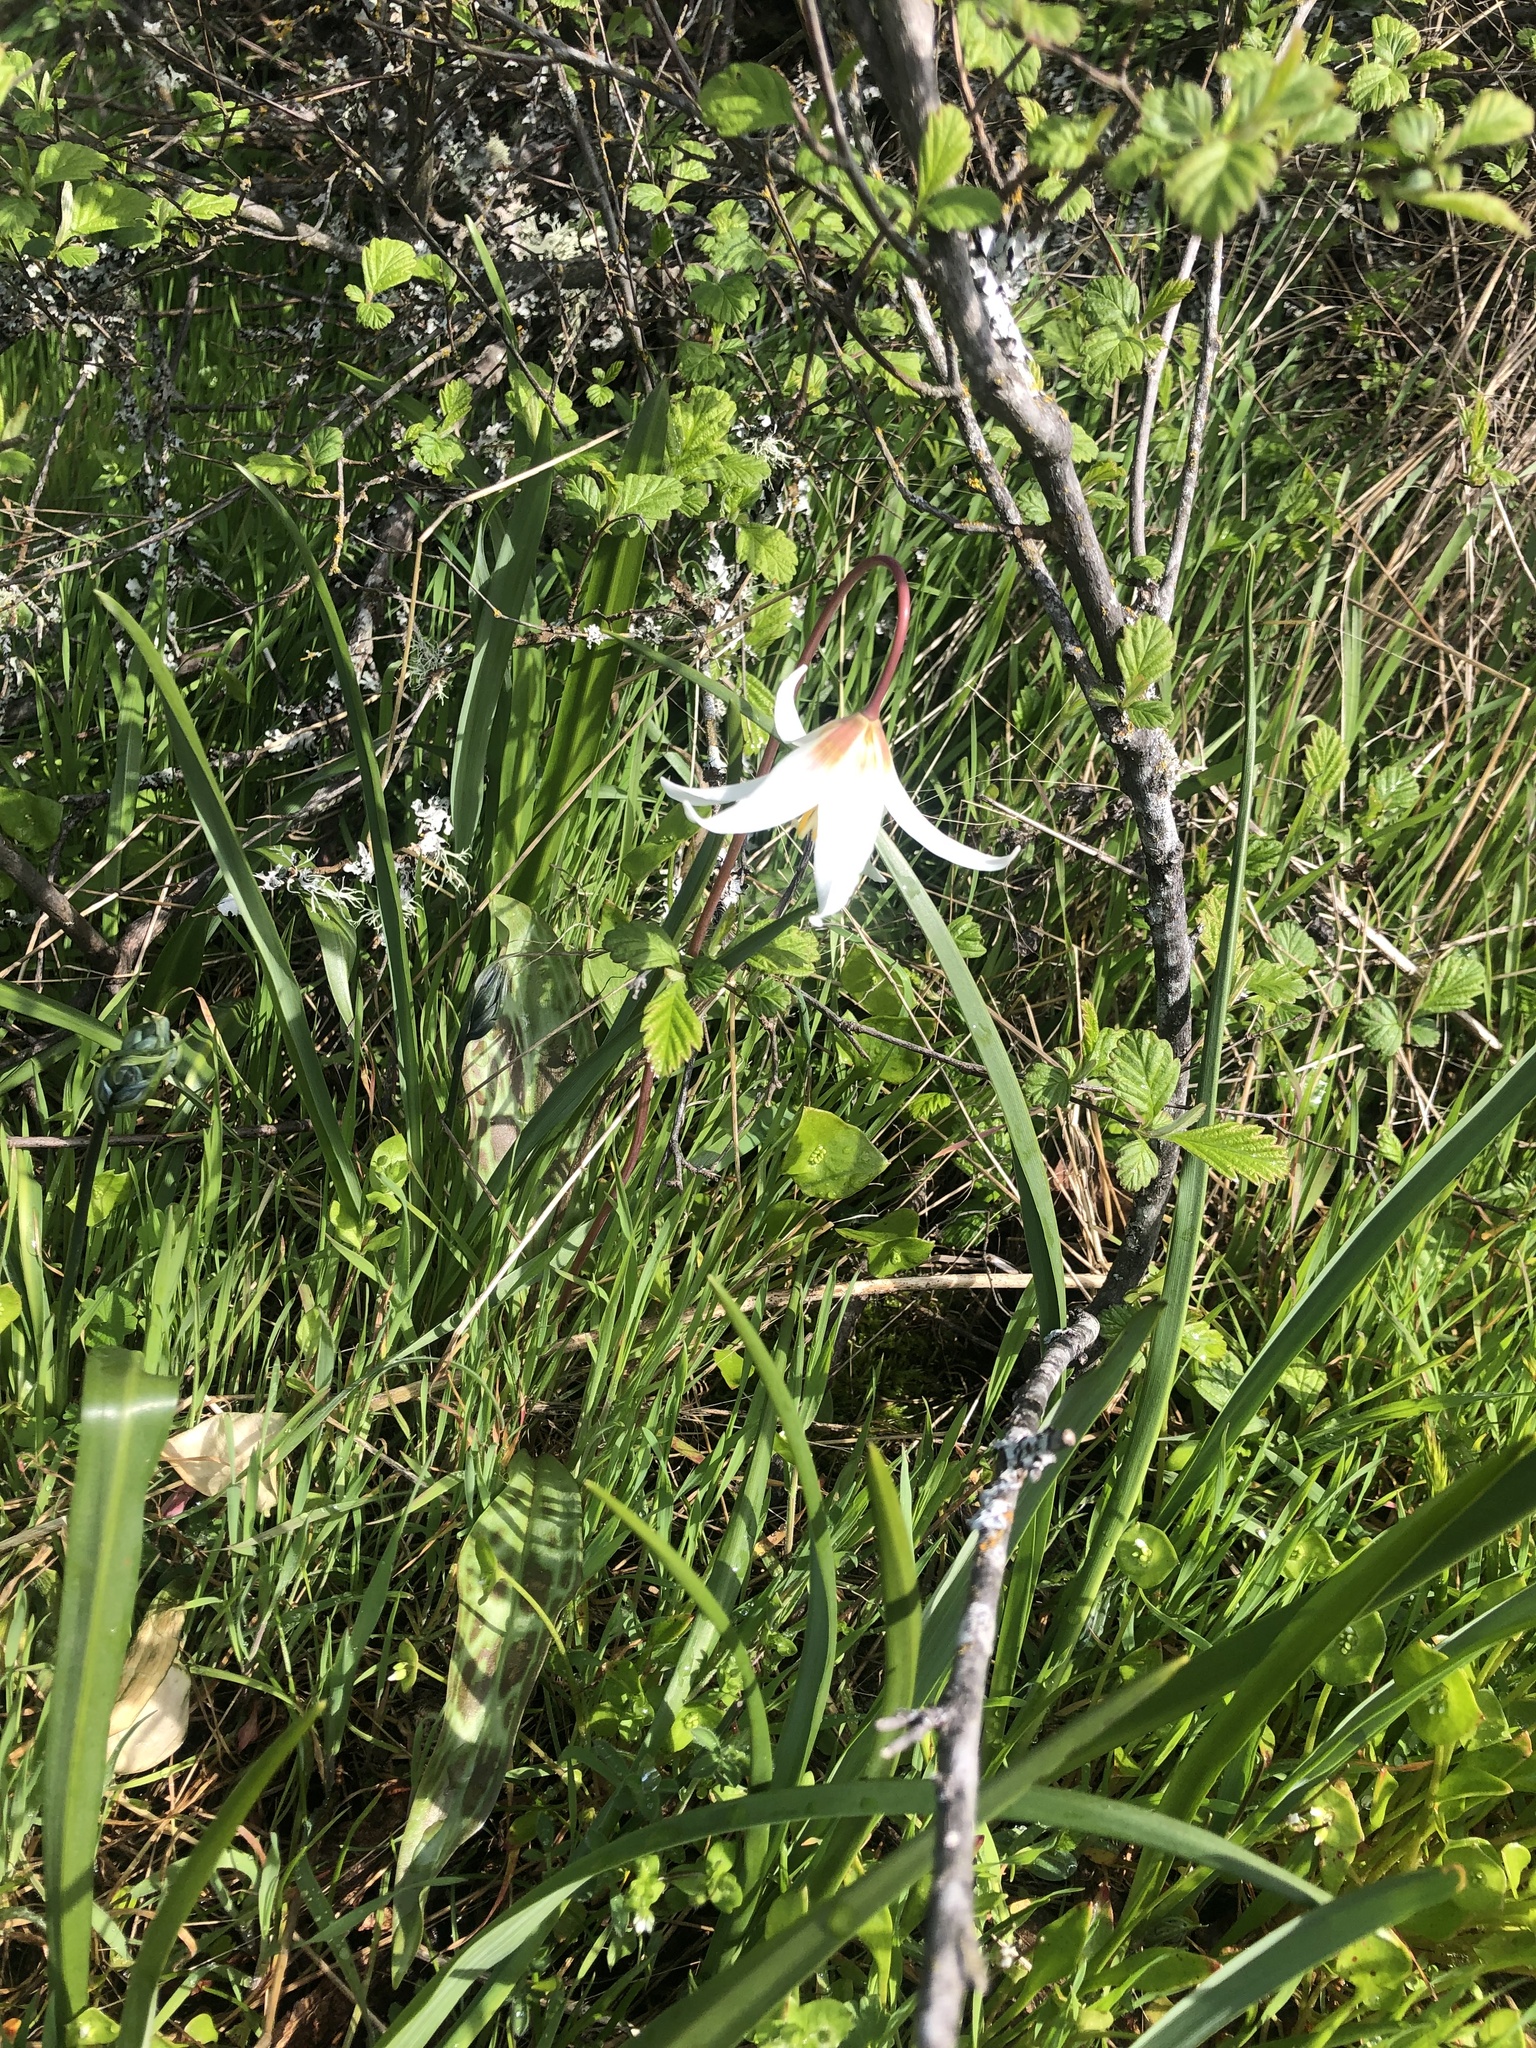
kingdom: Plantae
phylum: Tracheophyta
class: Liliopsida
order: Liliales
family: Liliaceae
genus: Erythronium
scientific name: Erythronium oregonum
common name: Giant adder's-tongue
